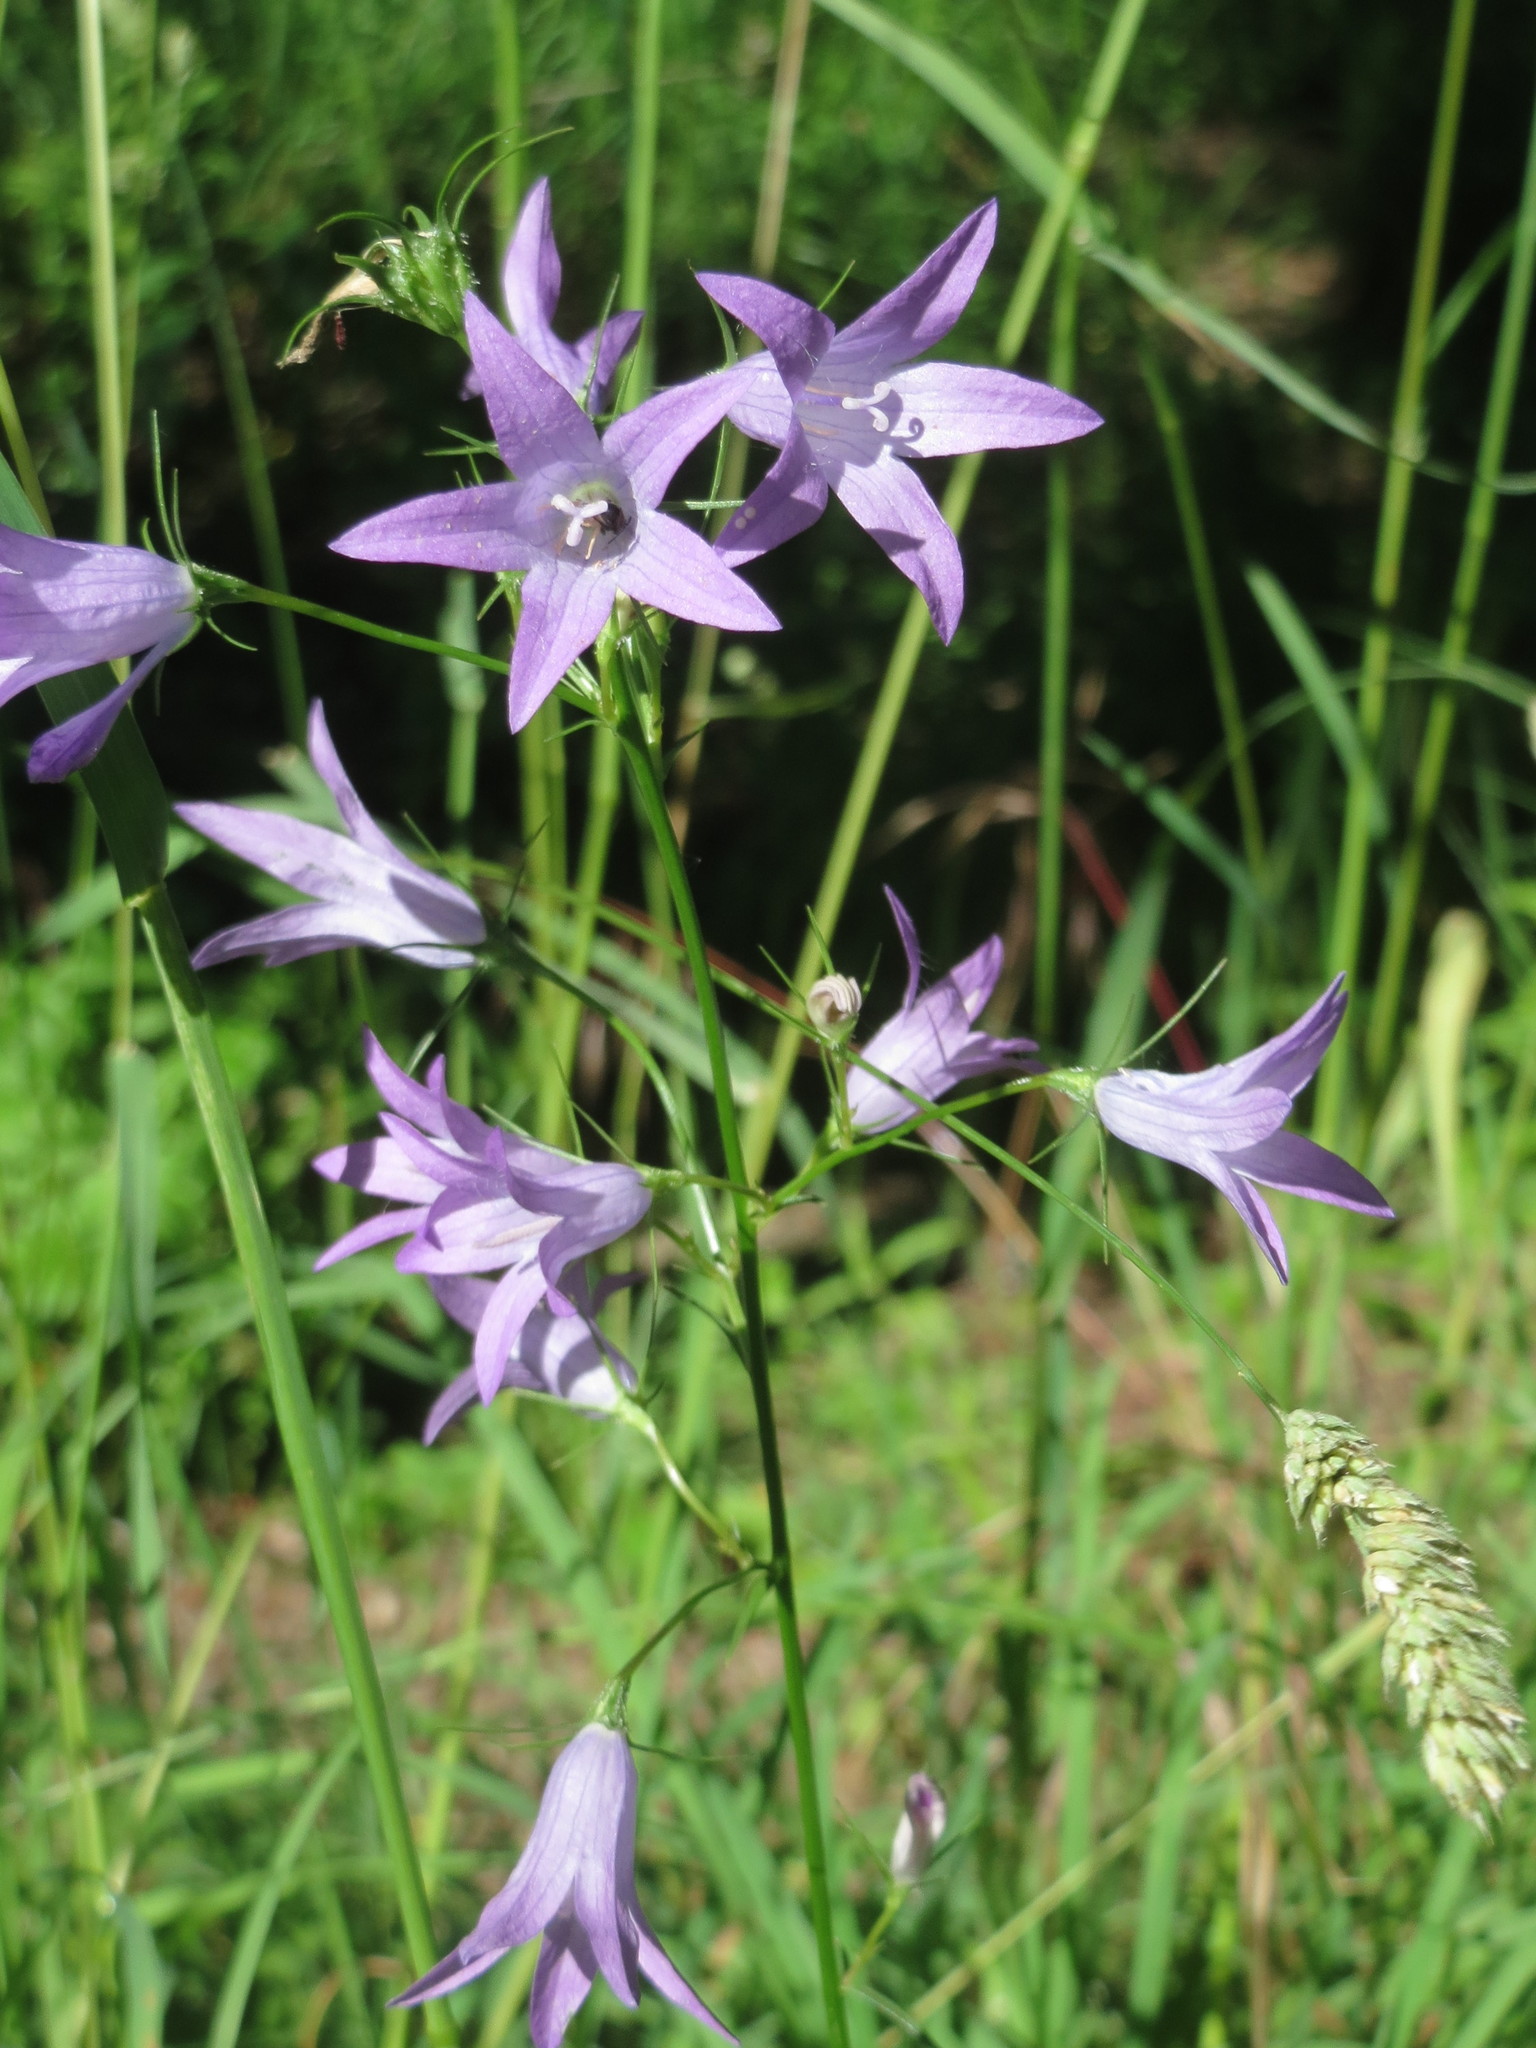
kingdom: Plantae
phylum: Tracheophyta
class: Magnoliopsida
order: Asterales
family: Campanulaceae
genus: Campanula
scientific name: Campanula rapunculus
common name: Rampion bellflower
